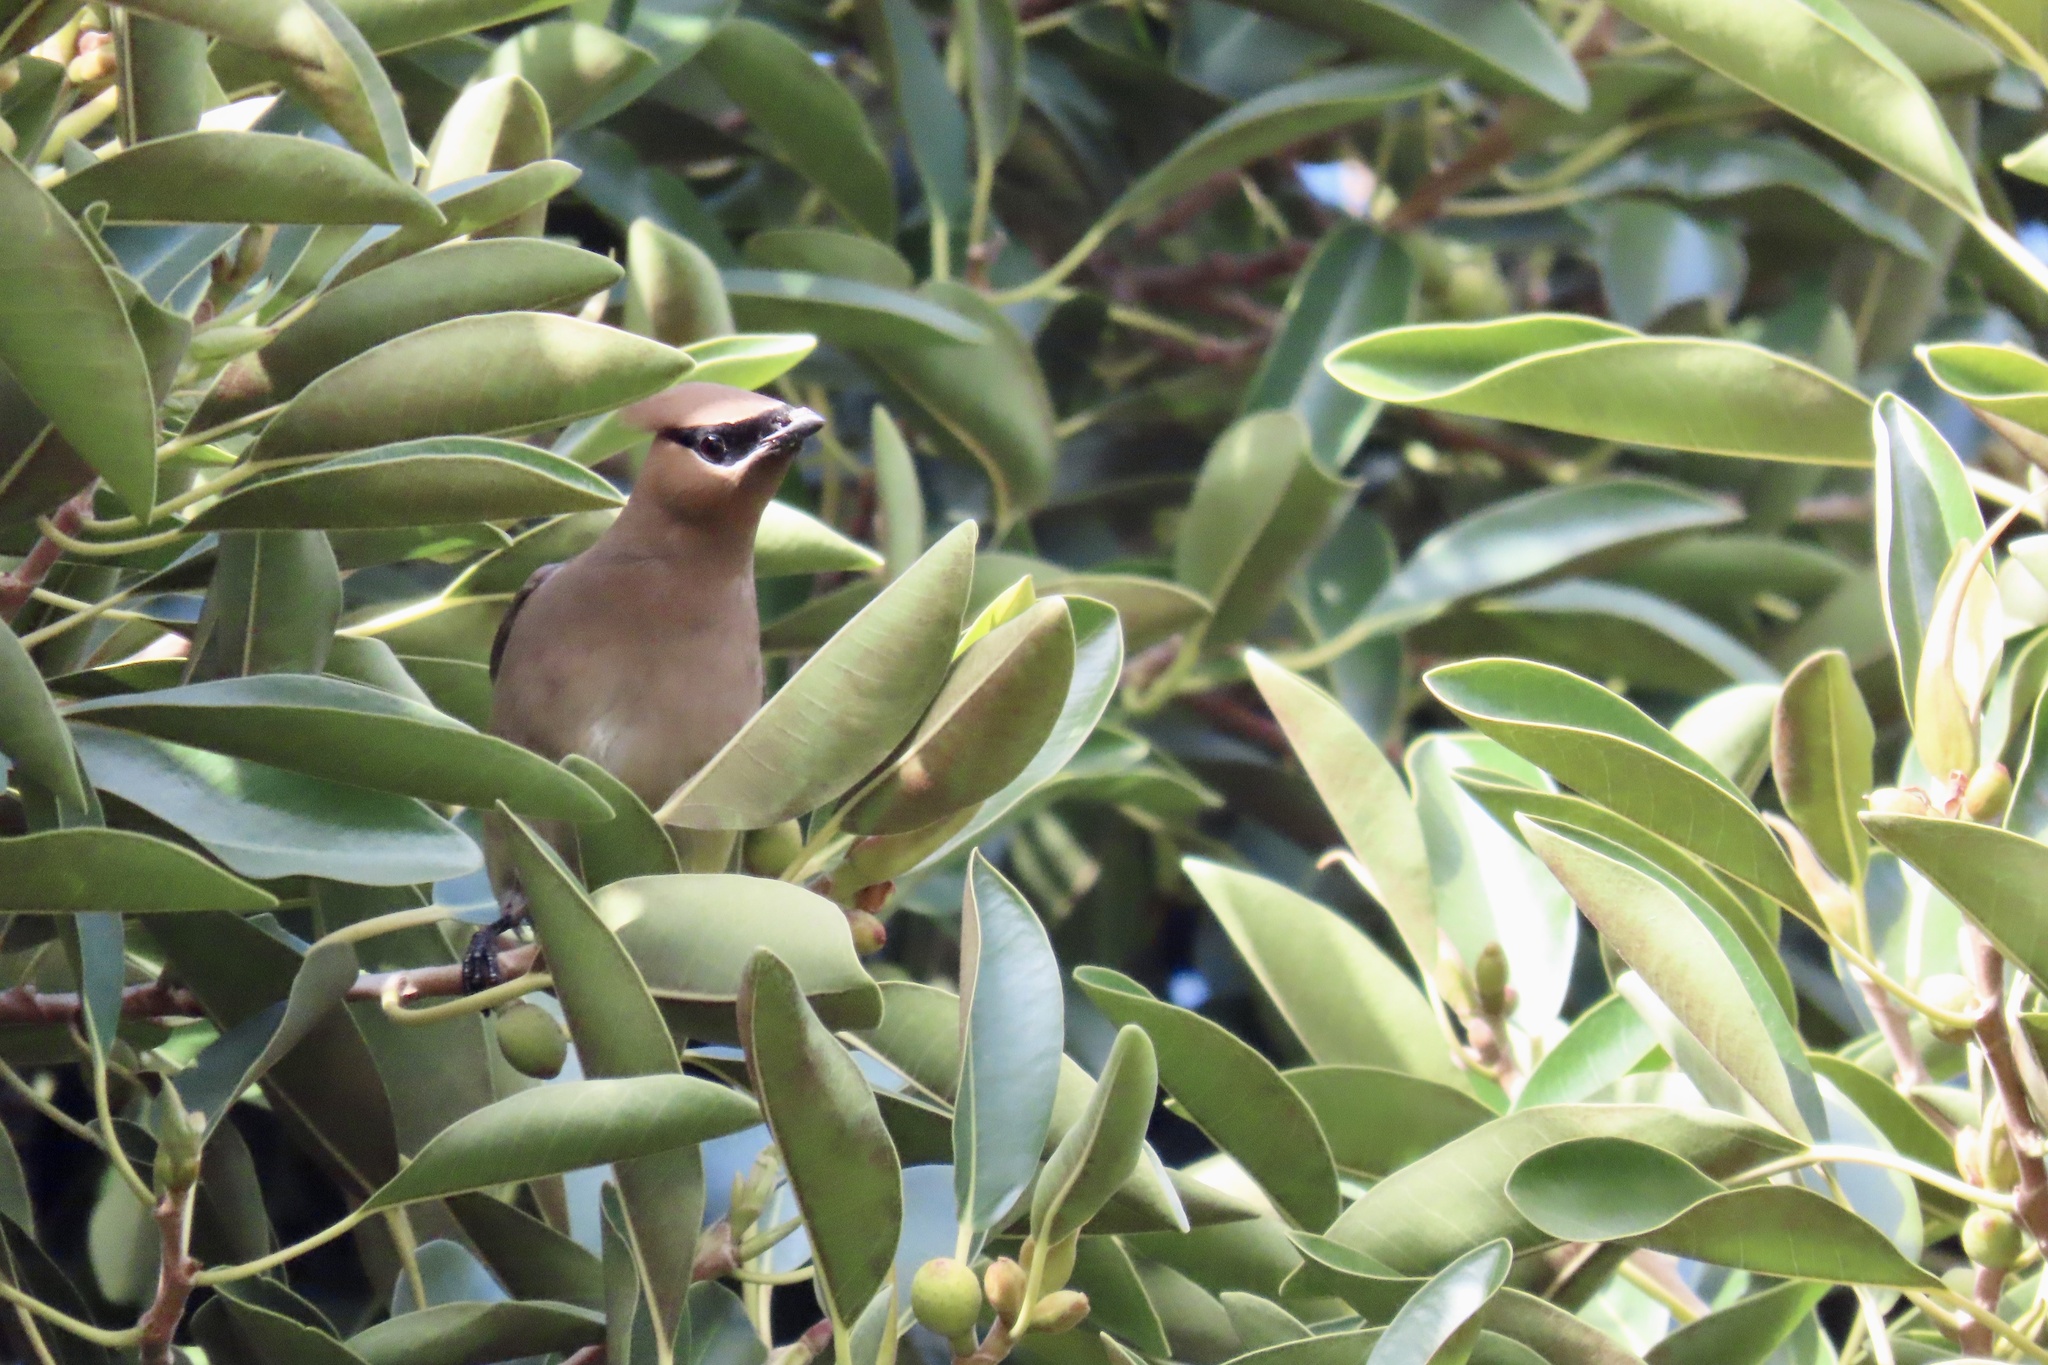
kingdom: Animalia
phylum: Chordata
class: Aves
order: Passeriformes
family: Bombycillidae
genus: Bombycilla
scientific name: Bombycilla cedrorum
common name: Cedar waxwing
